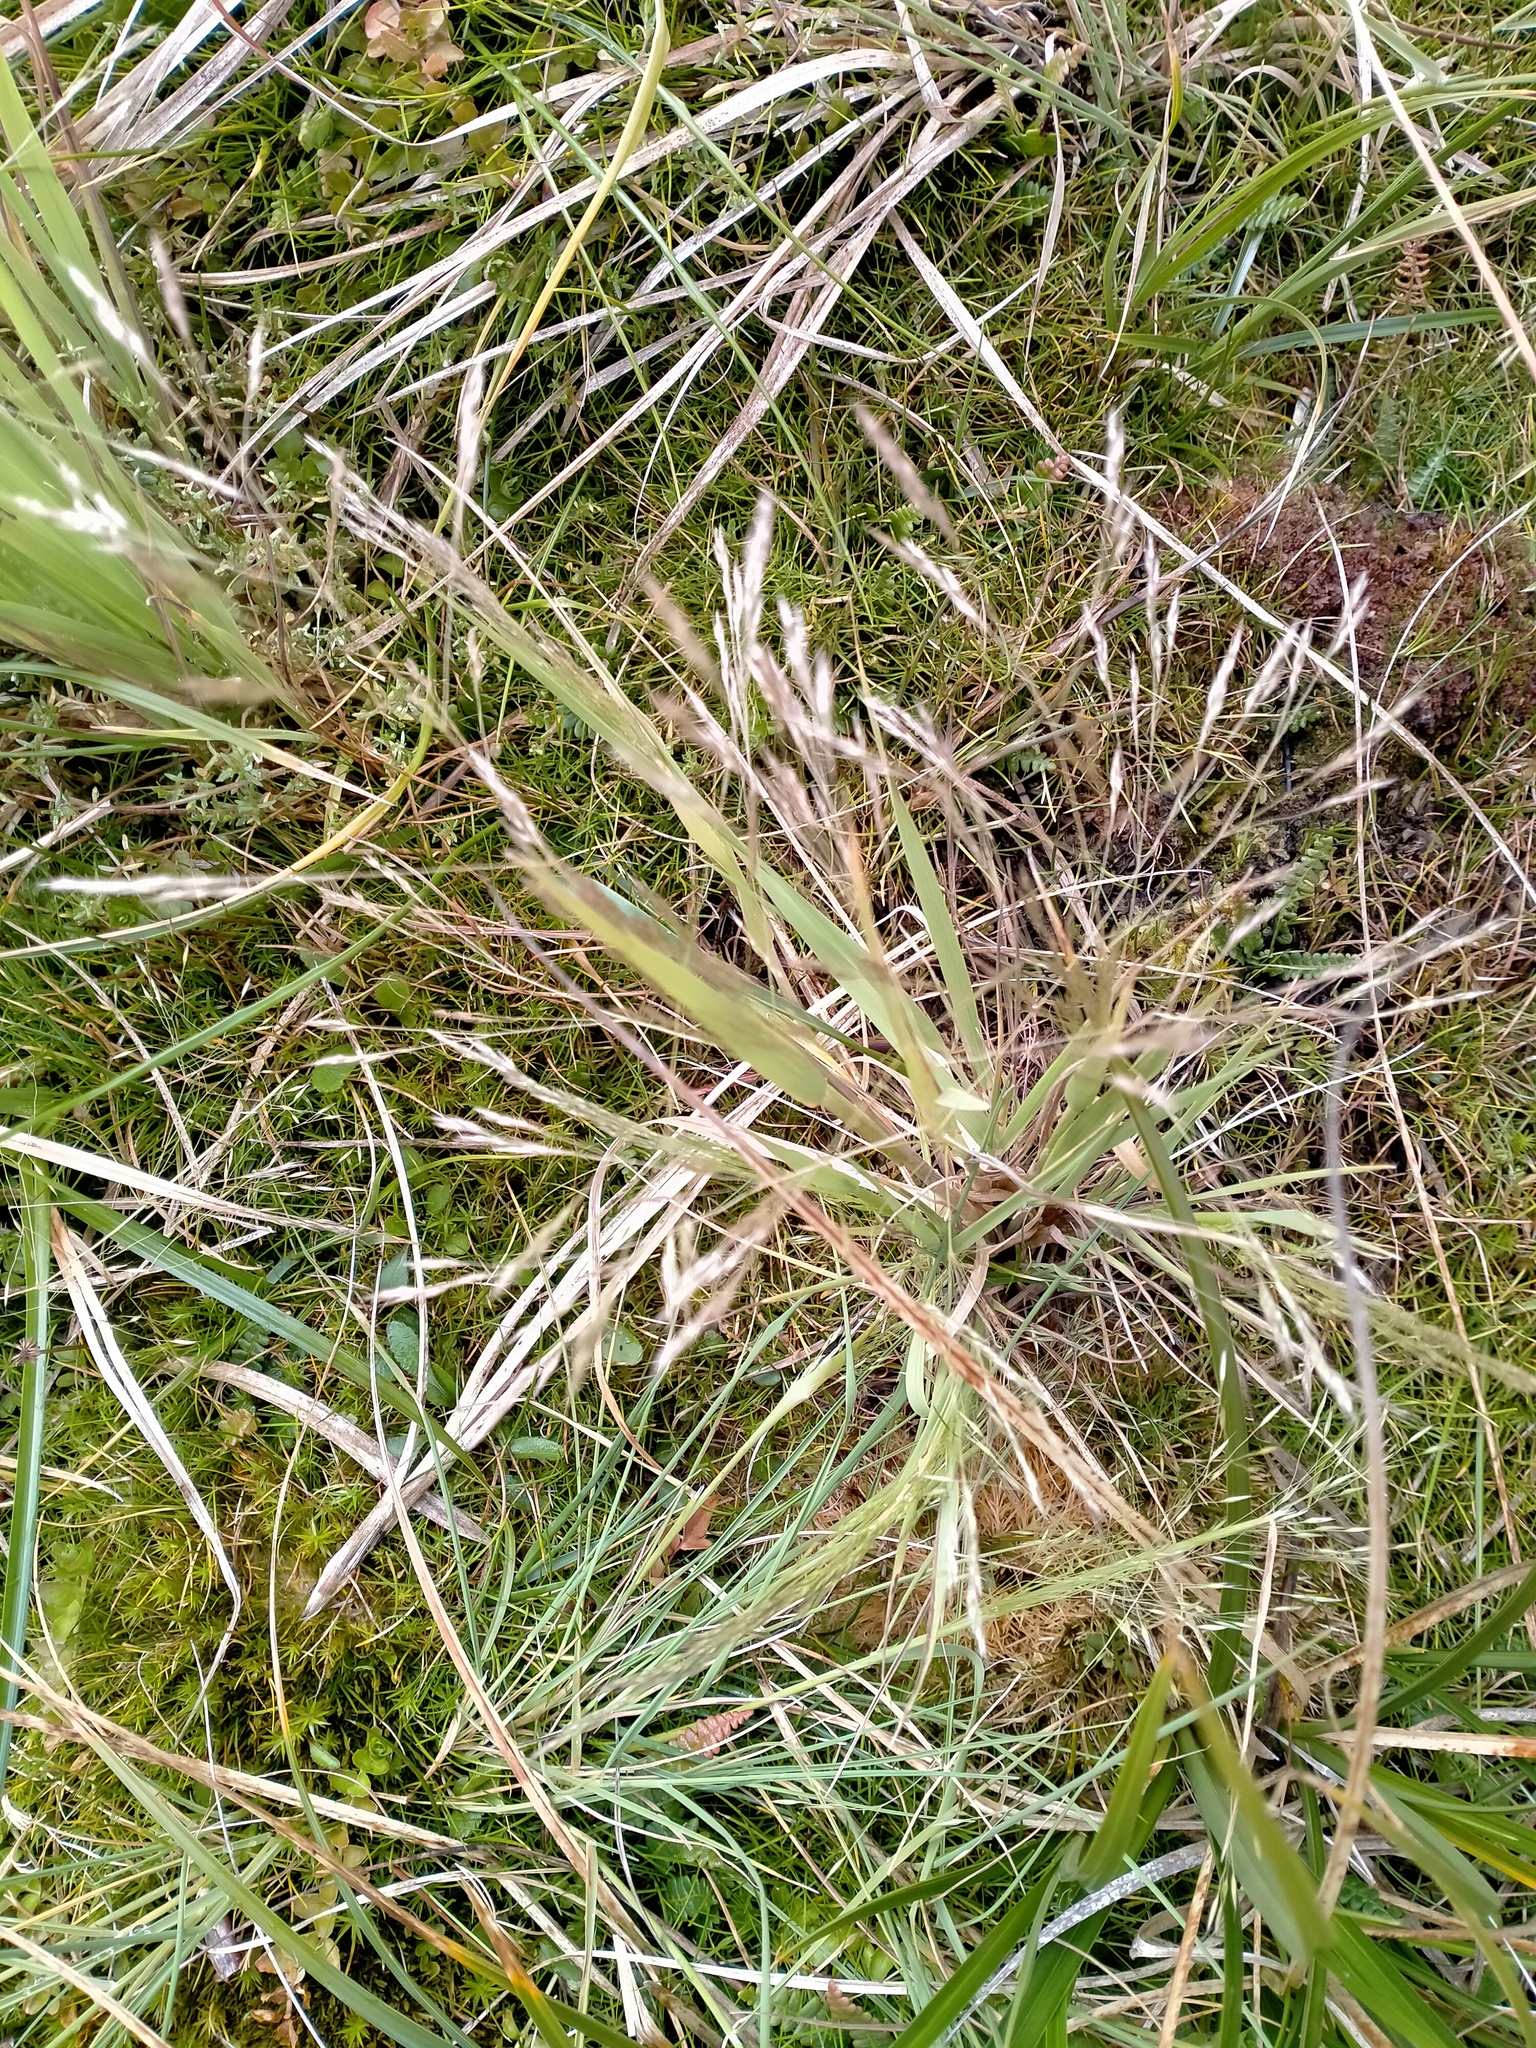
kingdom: Plantae
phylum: Tracheophyta
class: Polypodiopsida
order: Polypodiales
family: Blechnaceae
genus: Austroblechnum
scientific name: Austroblechnum penna-marina
